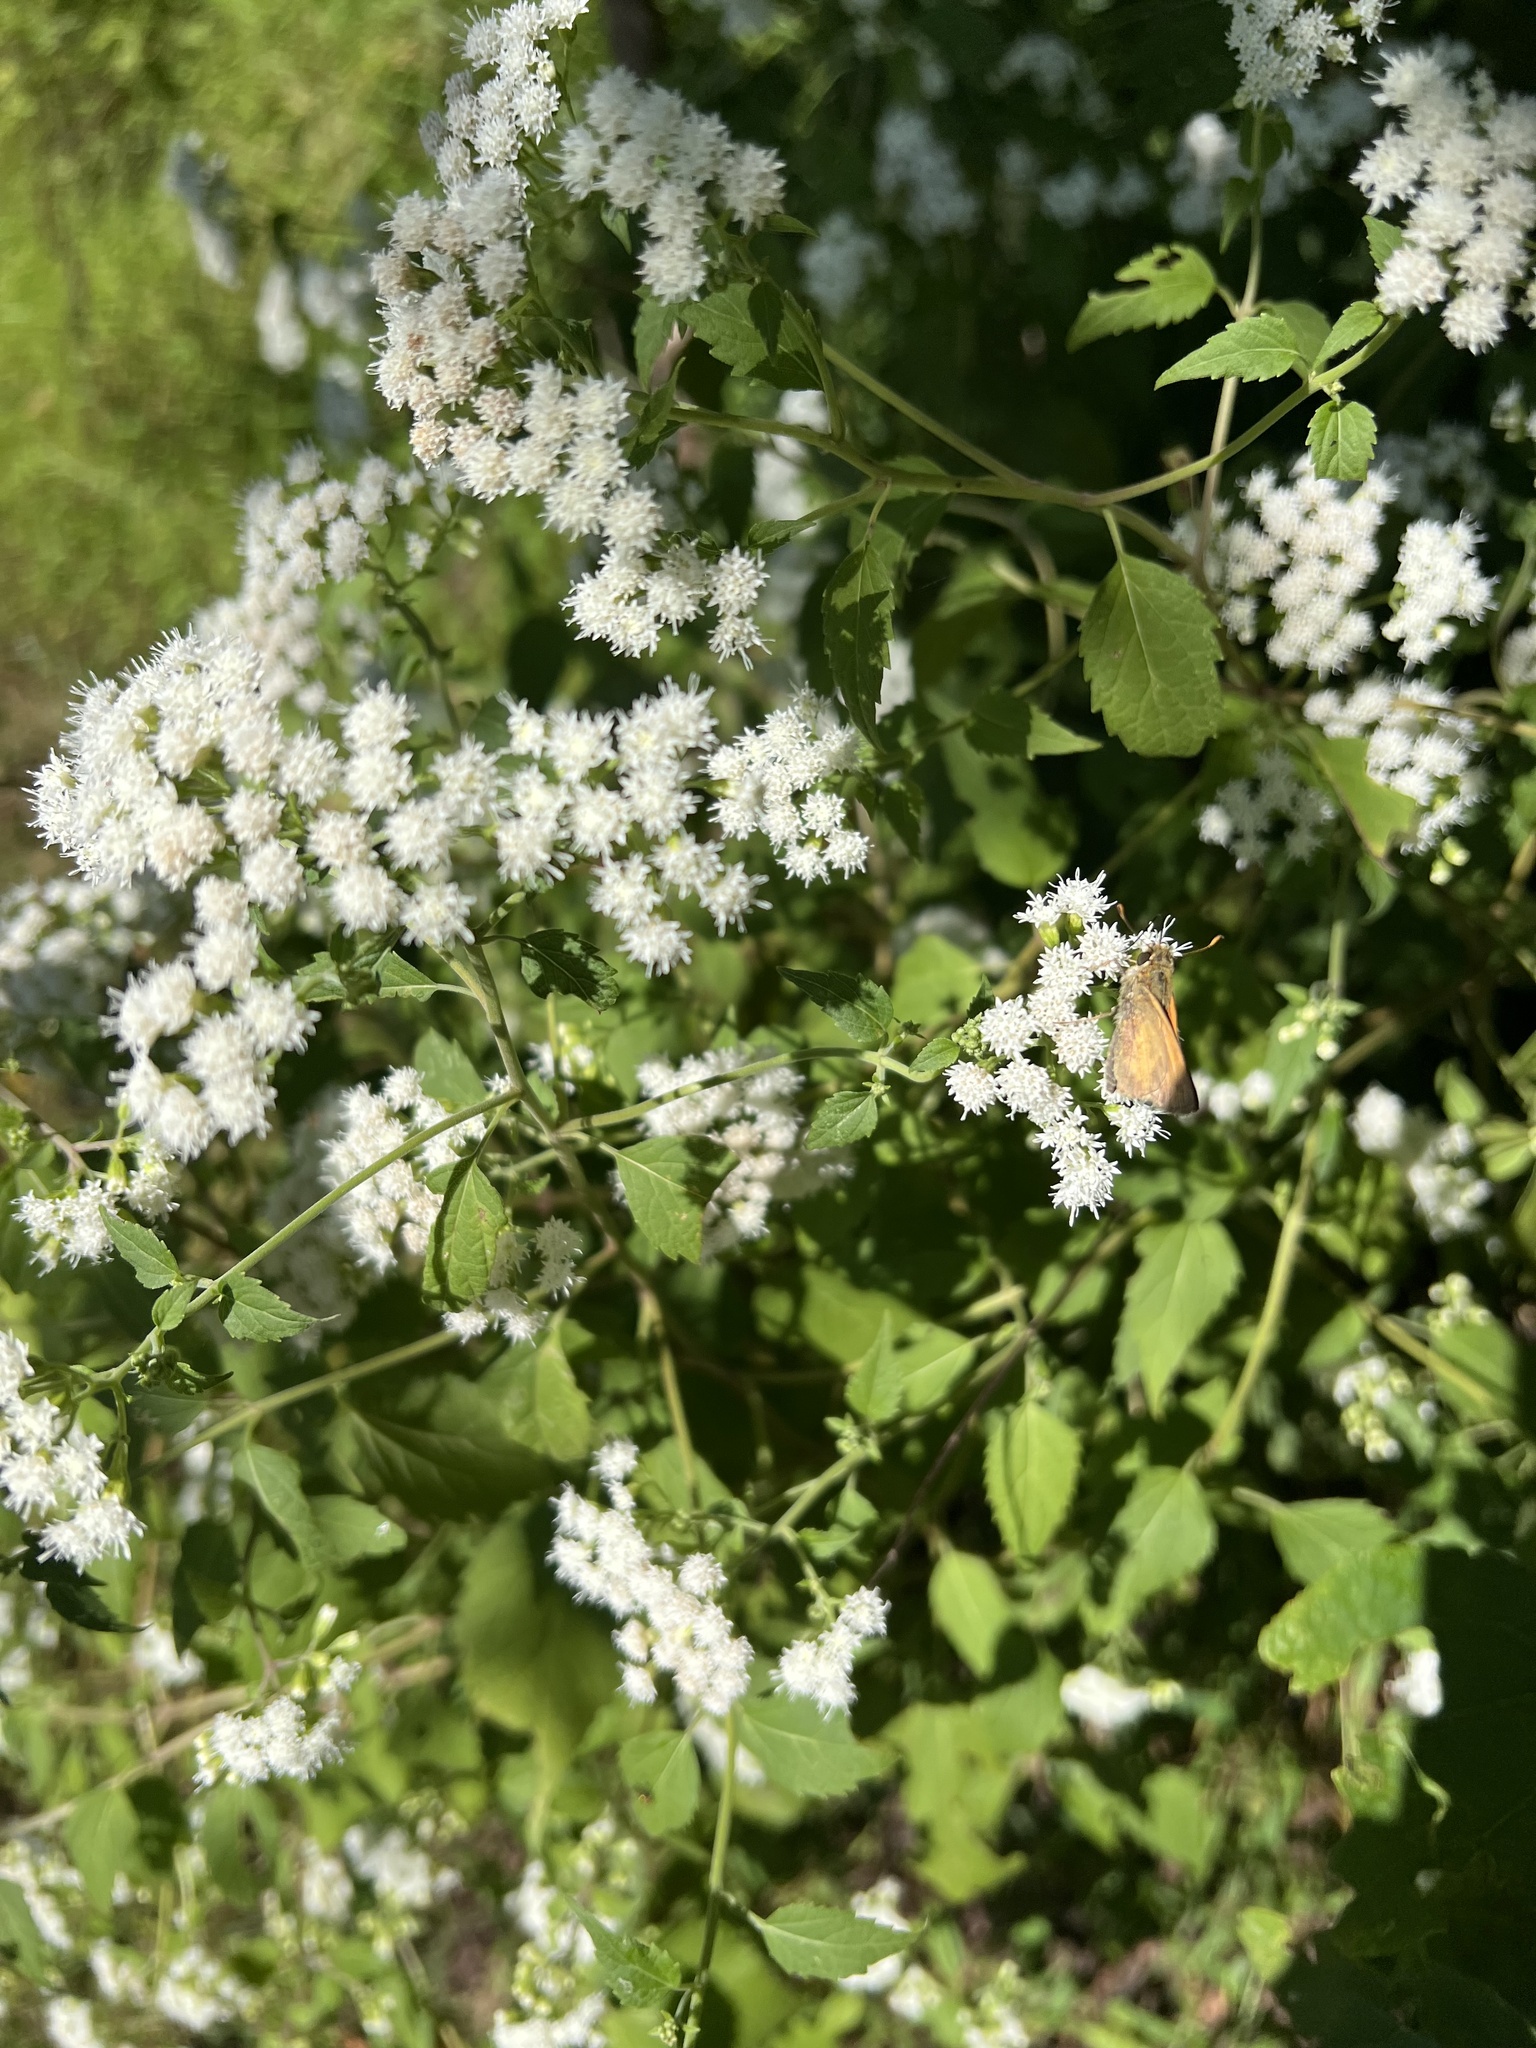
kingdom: Plantae
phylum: Tracheophyta
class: Magnoliopsida
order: Asterales
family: Asteraceae
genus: Ageratina
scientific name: Ageratina altissima
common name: White snakeroot
